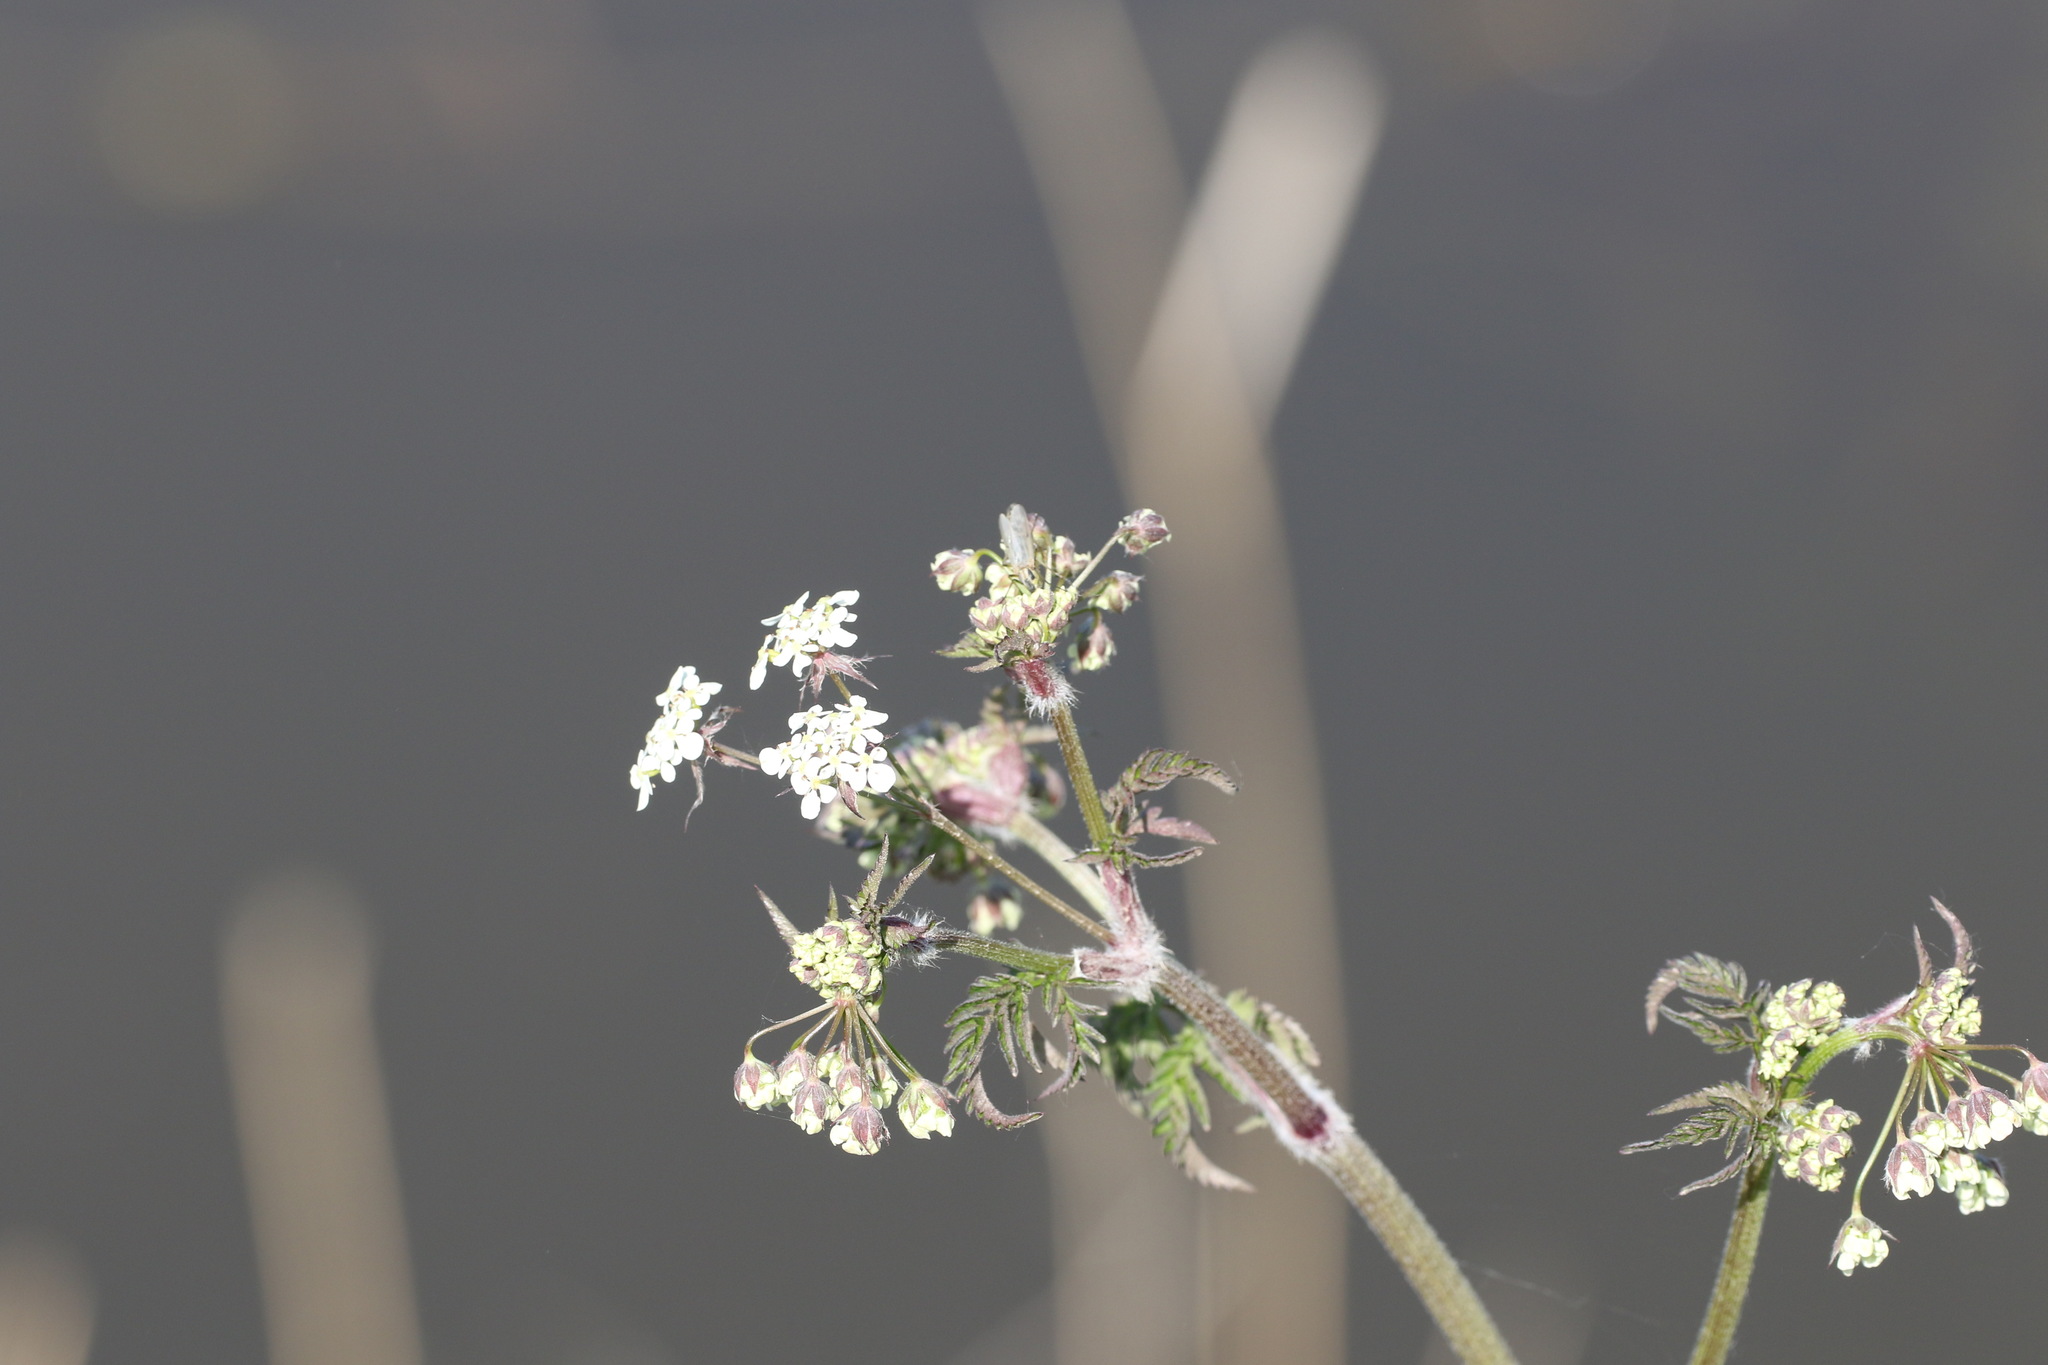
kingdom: Plantae
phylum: Tracheophyta
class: Magnoliopsida
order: Apiales
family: Apiaceae
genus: Anthriscus
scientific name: Anthriscus sylvestris
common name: Cow parsley
